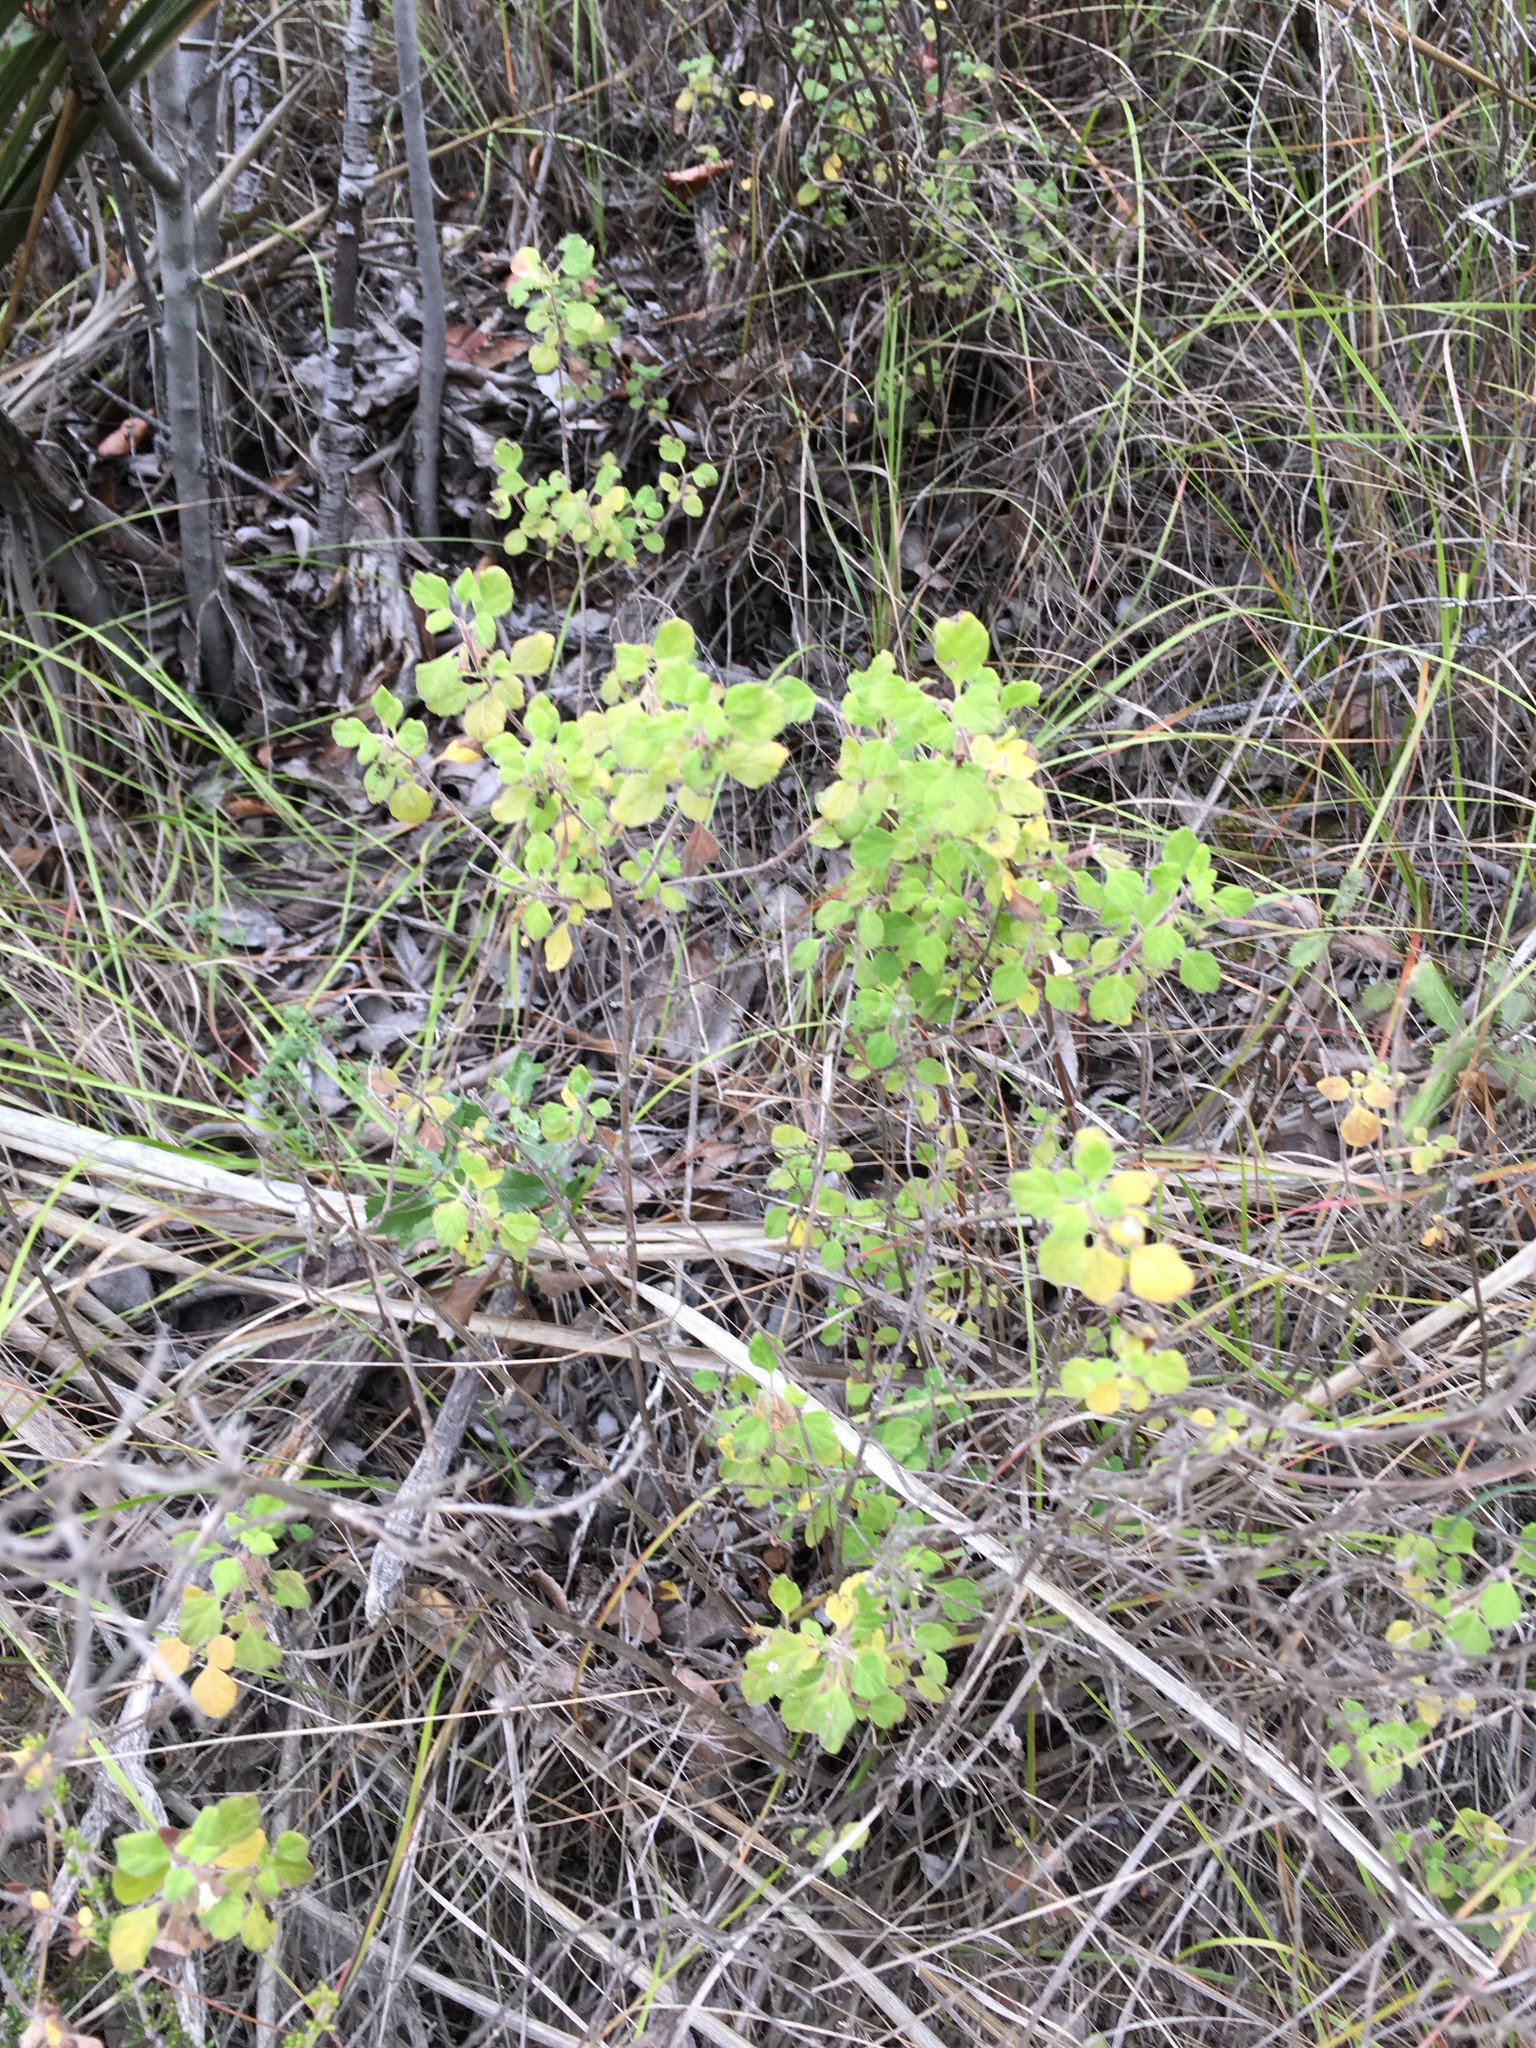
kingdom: Plantae
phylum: Tracheophyta
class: Magnoliopsida
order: Lamiales
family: Lamiaceae
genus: Clinopodium
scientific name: Clinopodium chandleri
